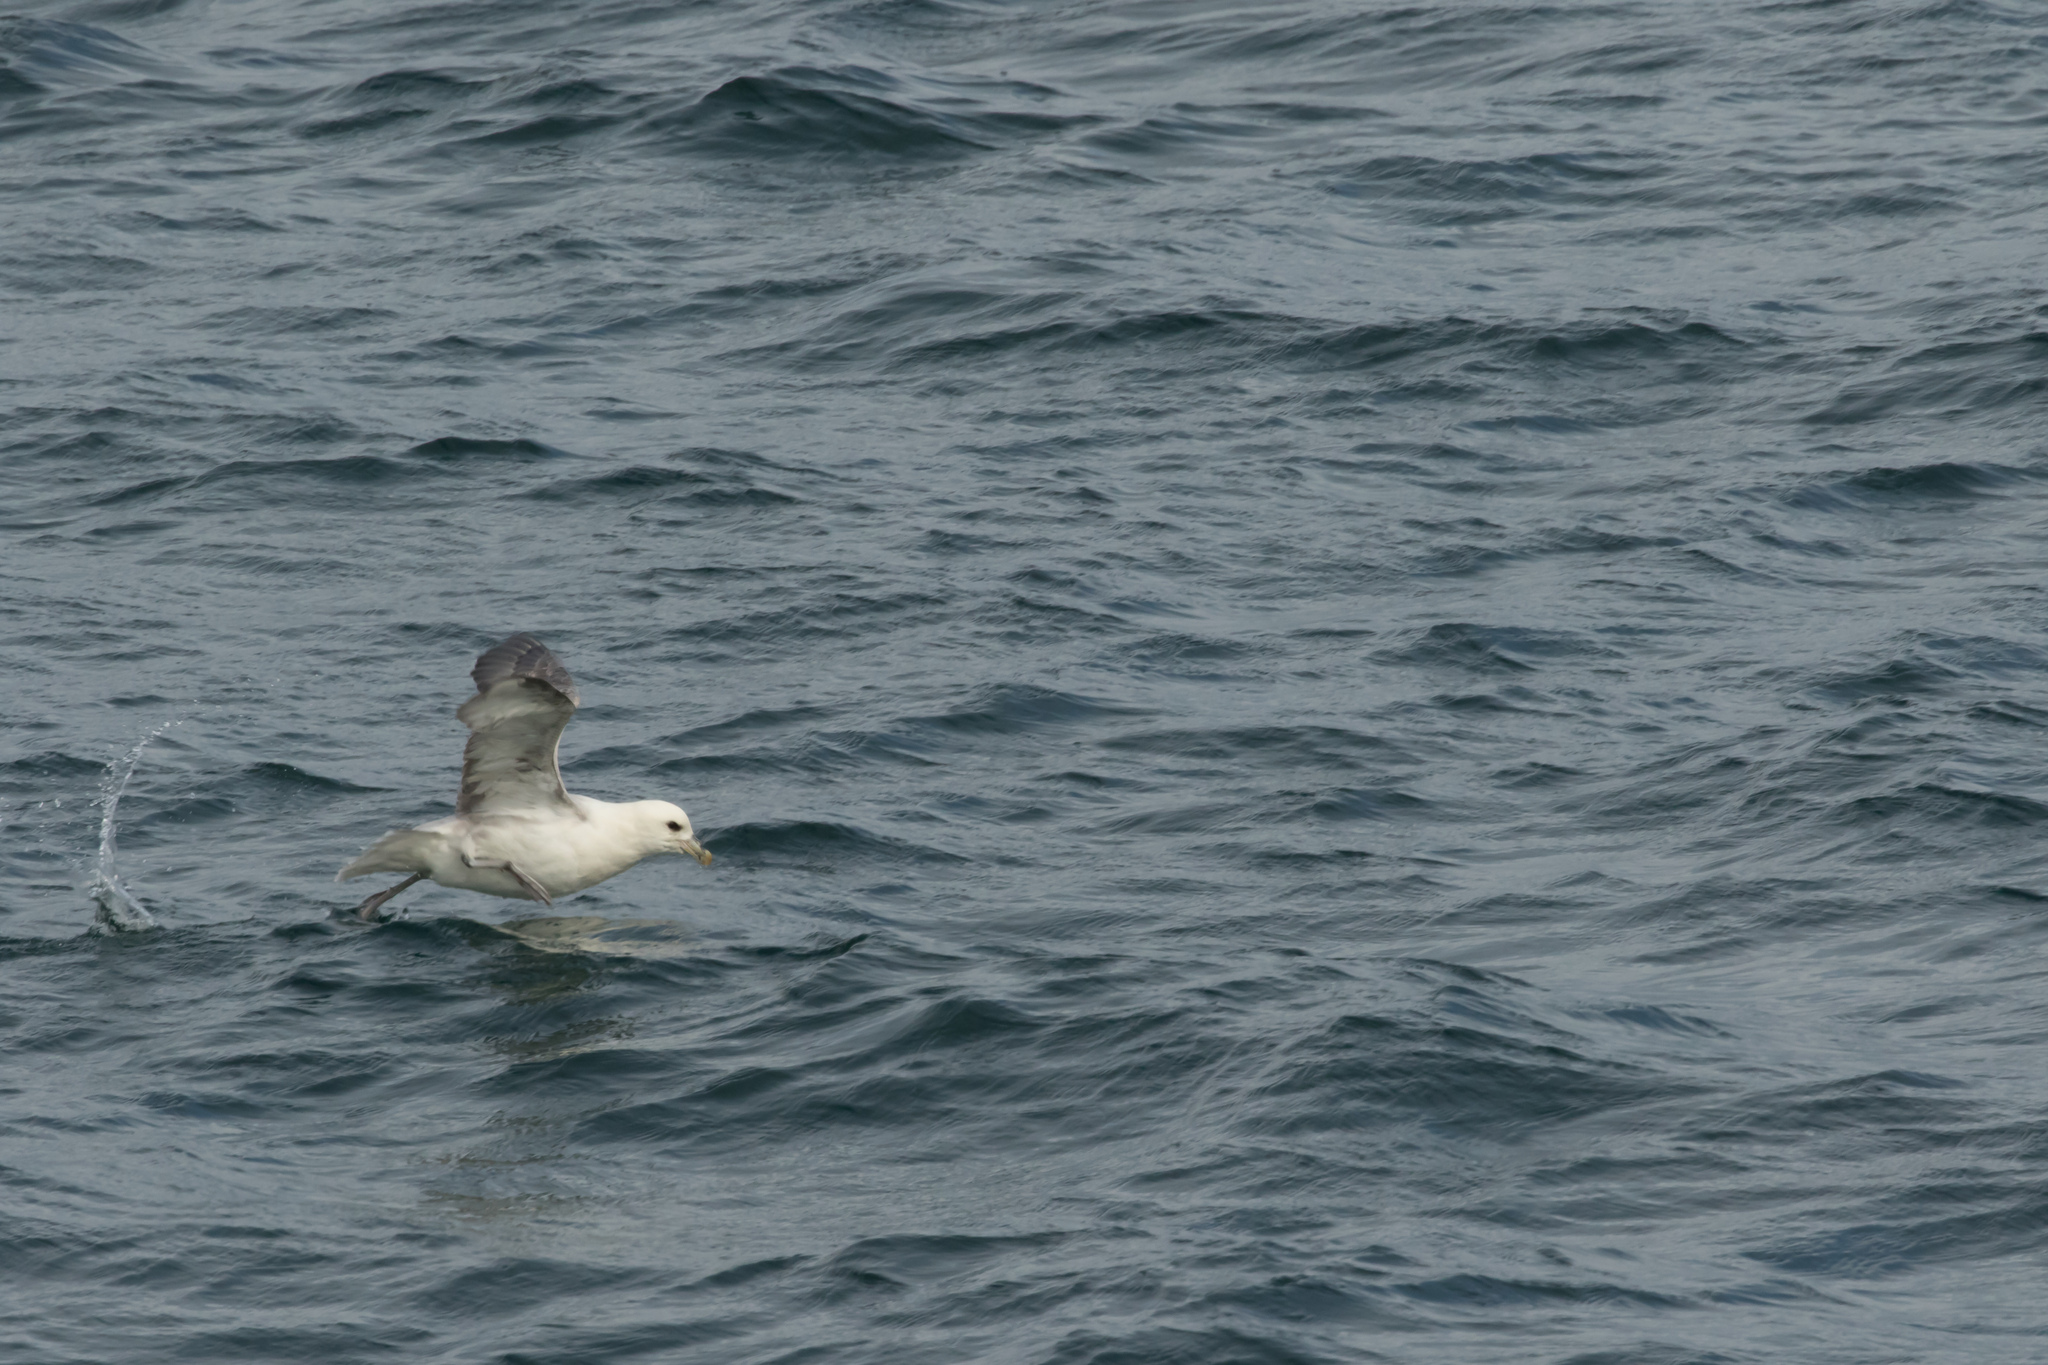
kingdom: Animalia
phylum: Chordata
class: Aves
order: Procellariiformes
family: Procellariidae
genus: Fulmarus
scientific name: Fulmarus glacialis
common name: Northern fulmar
